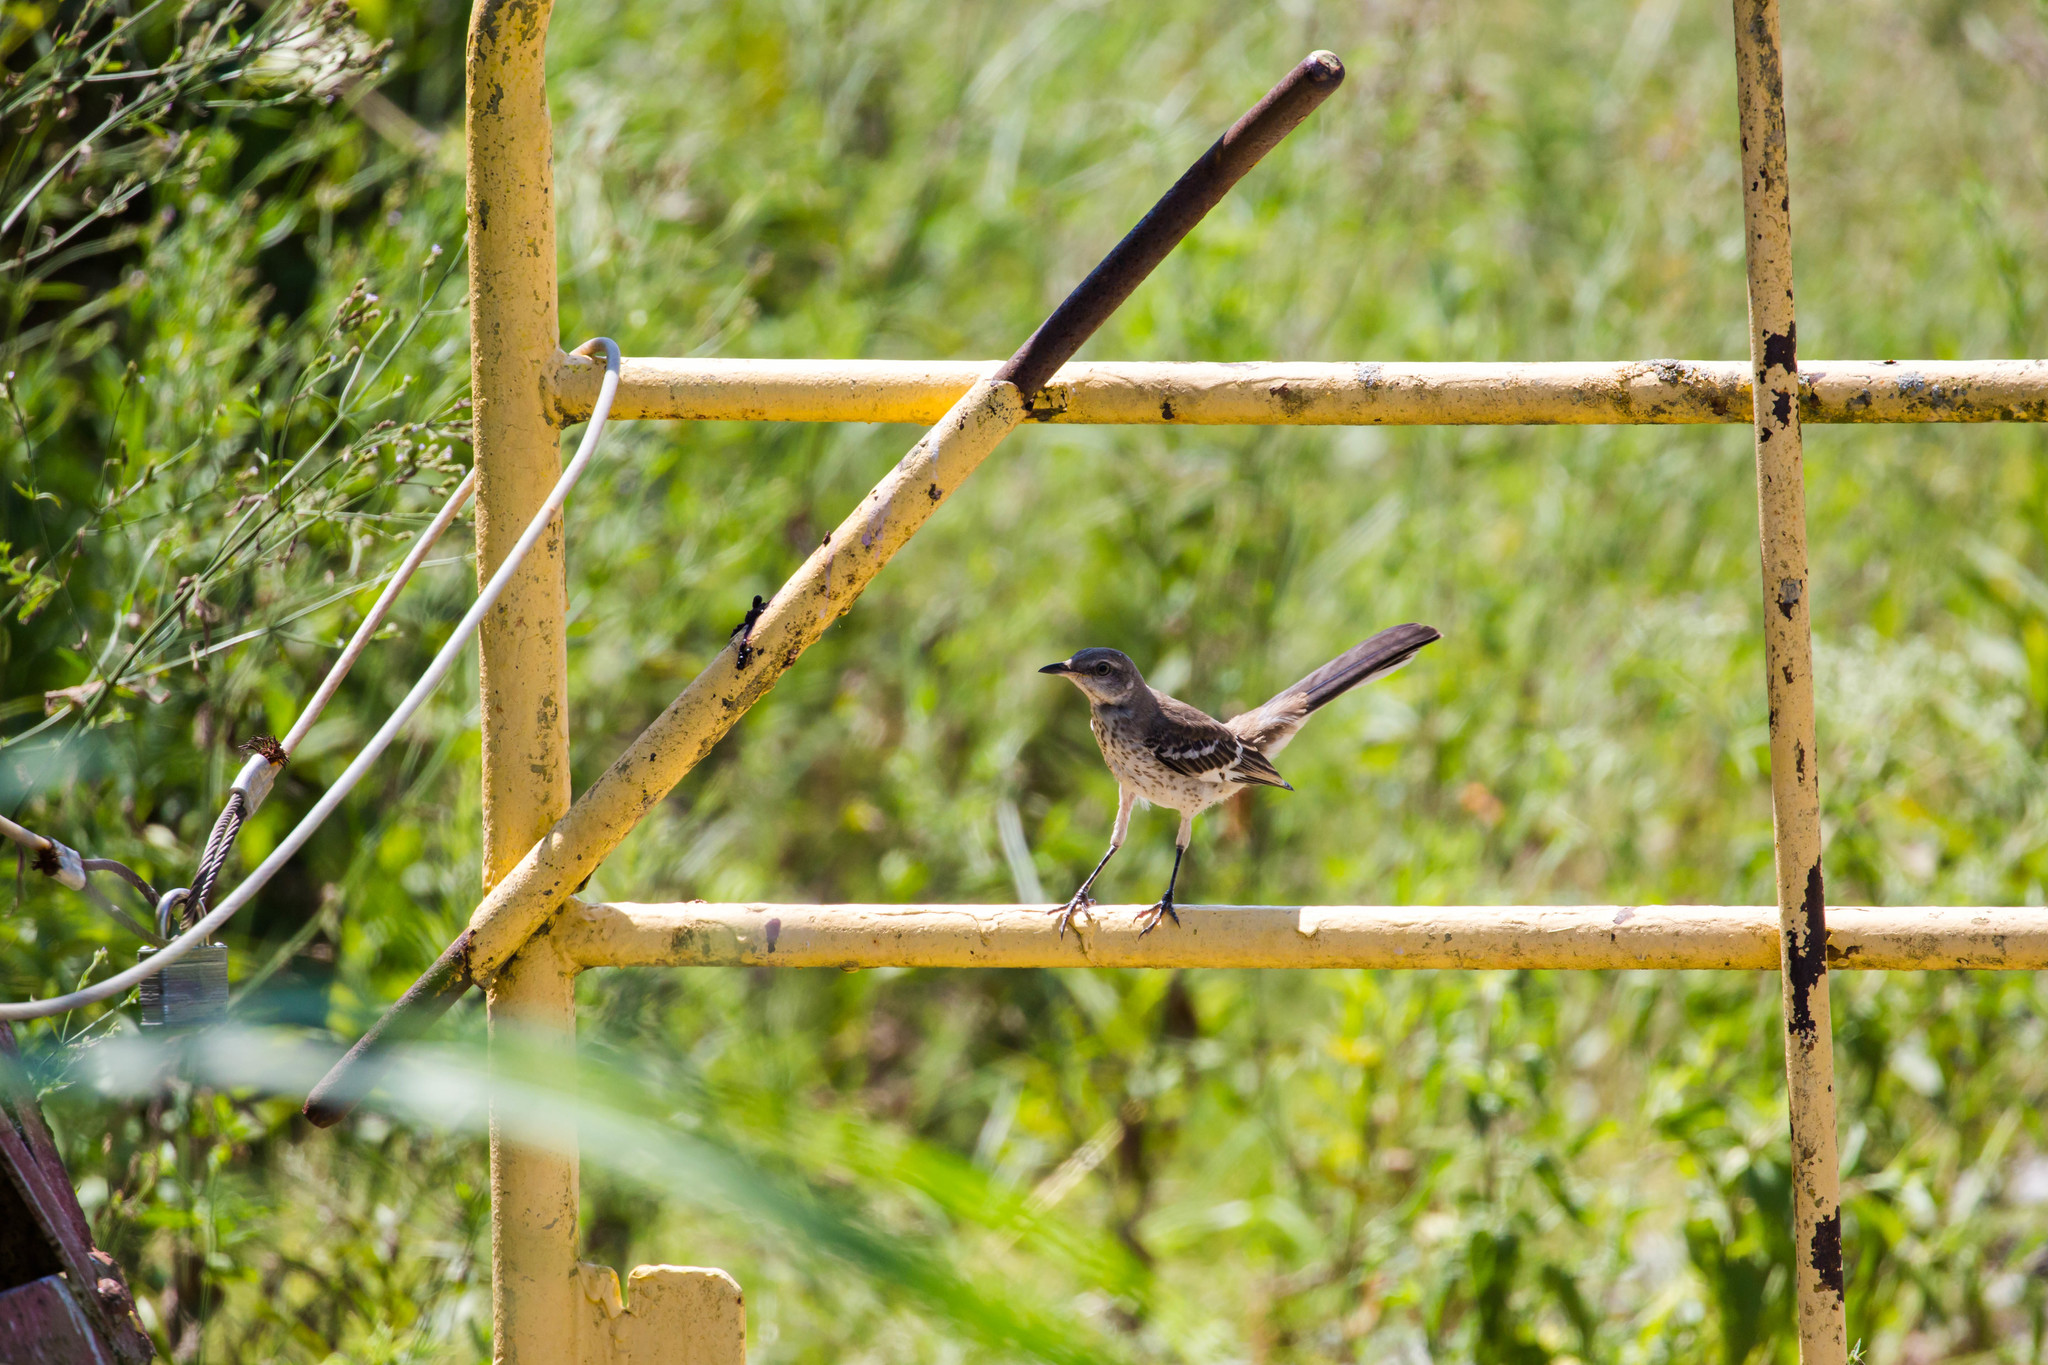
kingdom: Animalia
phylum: Chordata
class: Aves
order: Passeriformes
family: Mimidae
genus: Mimus
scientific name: Mimus polyglottos
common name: Northern mockingbird
